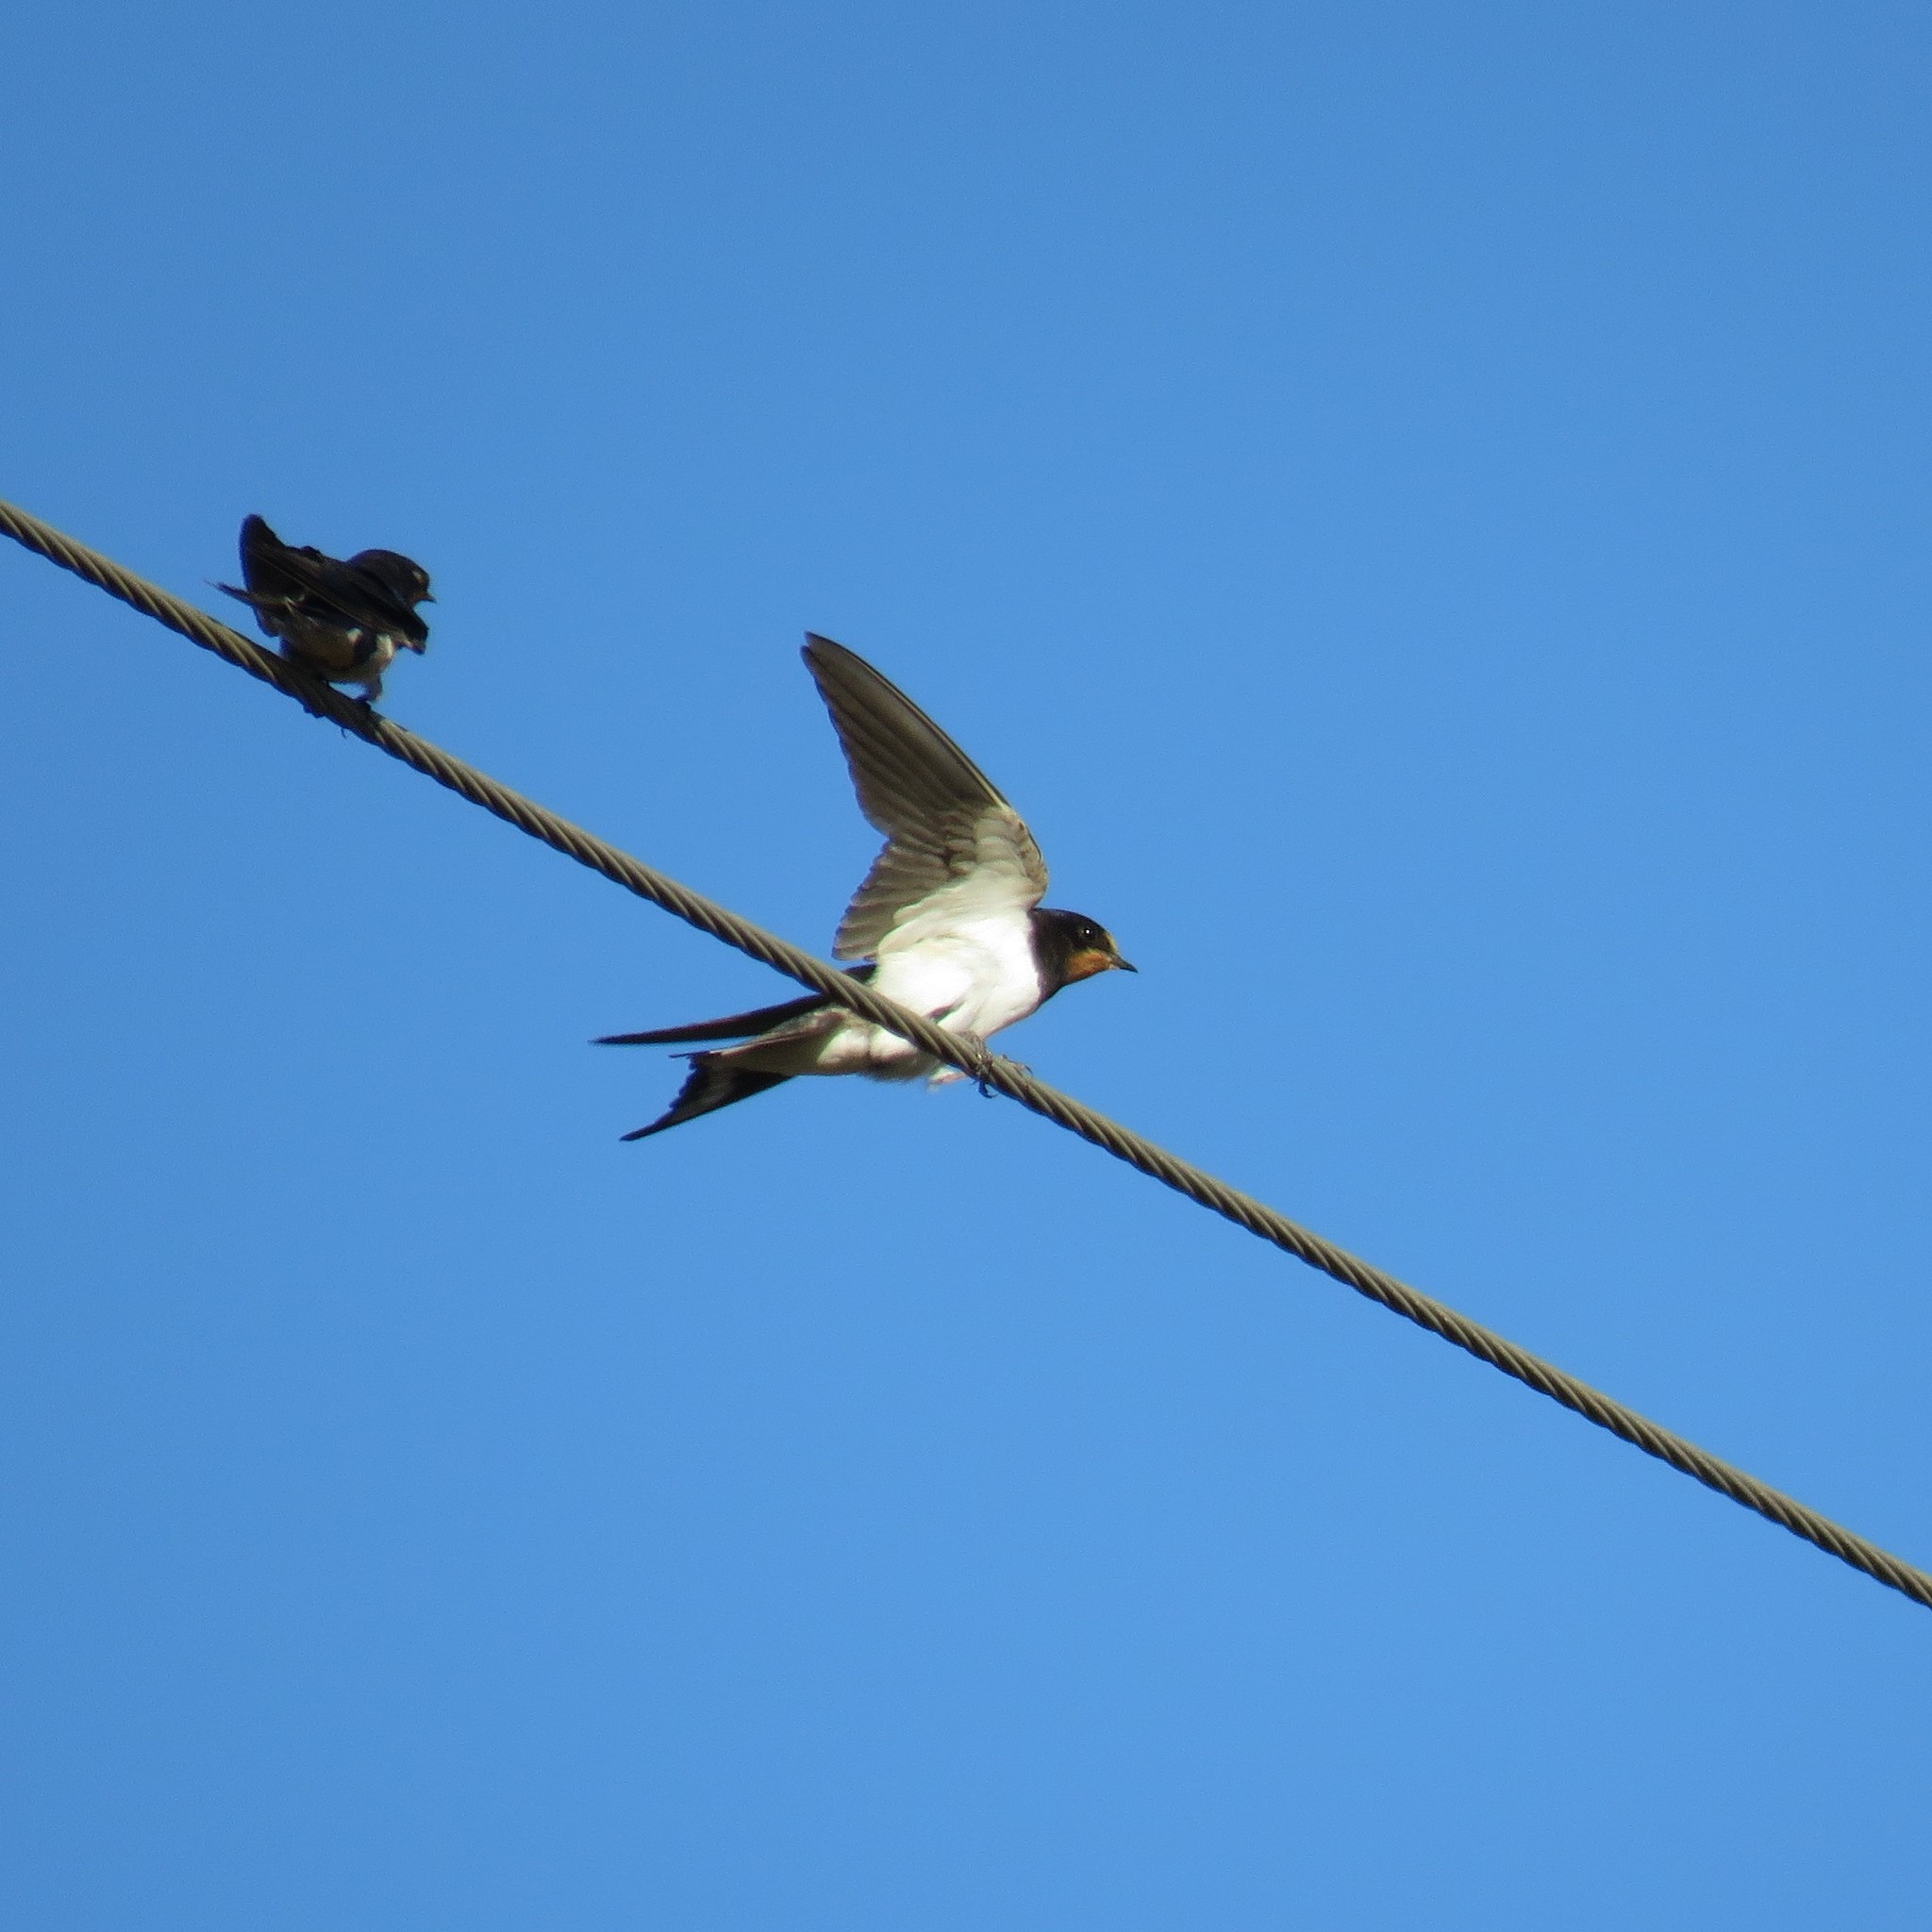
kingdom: Animalia
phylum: Chordata
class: Aves
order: Passeriformes
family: Hirundinidae
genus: Hirundo
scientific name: Hirundo rustica
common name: Barn swallow
